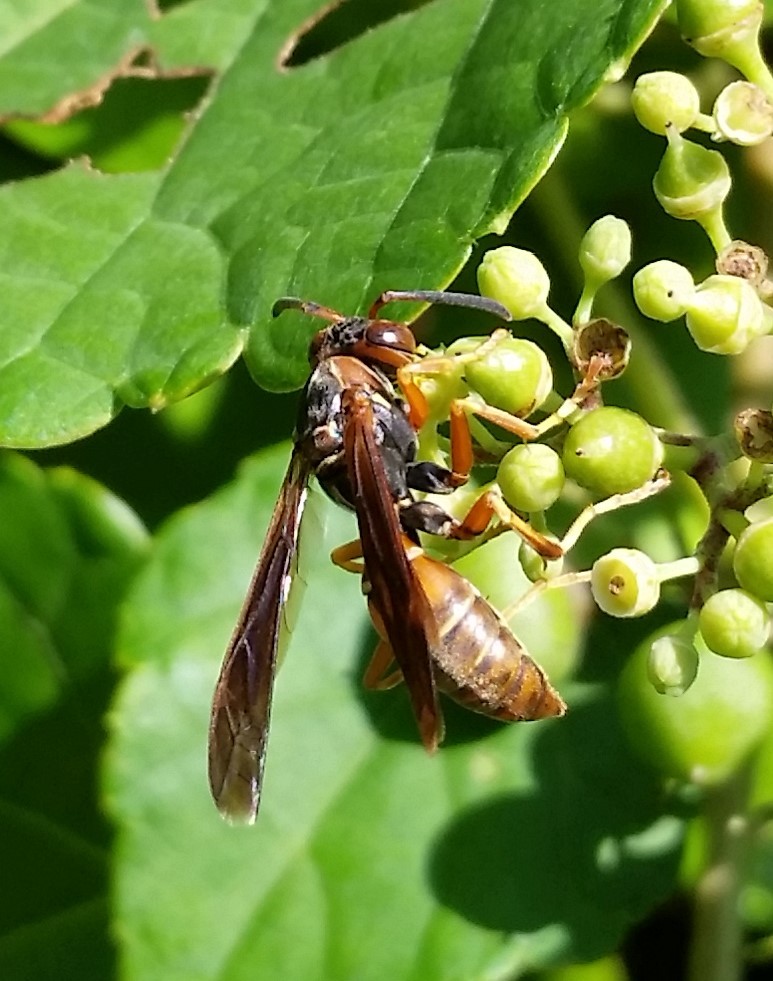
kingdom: Animalia
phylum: Arthropoda
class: Insecta
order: Hymenoptera
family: Eumenidae
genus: Polistes
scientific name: Polistes fuscatus
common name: Dark paper wasp
